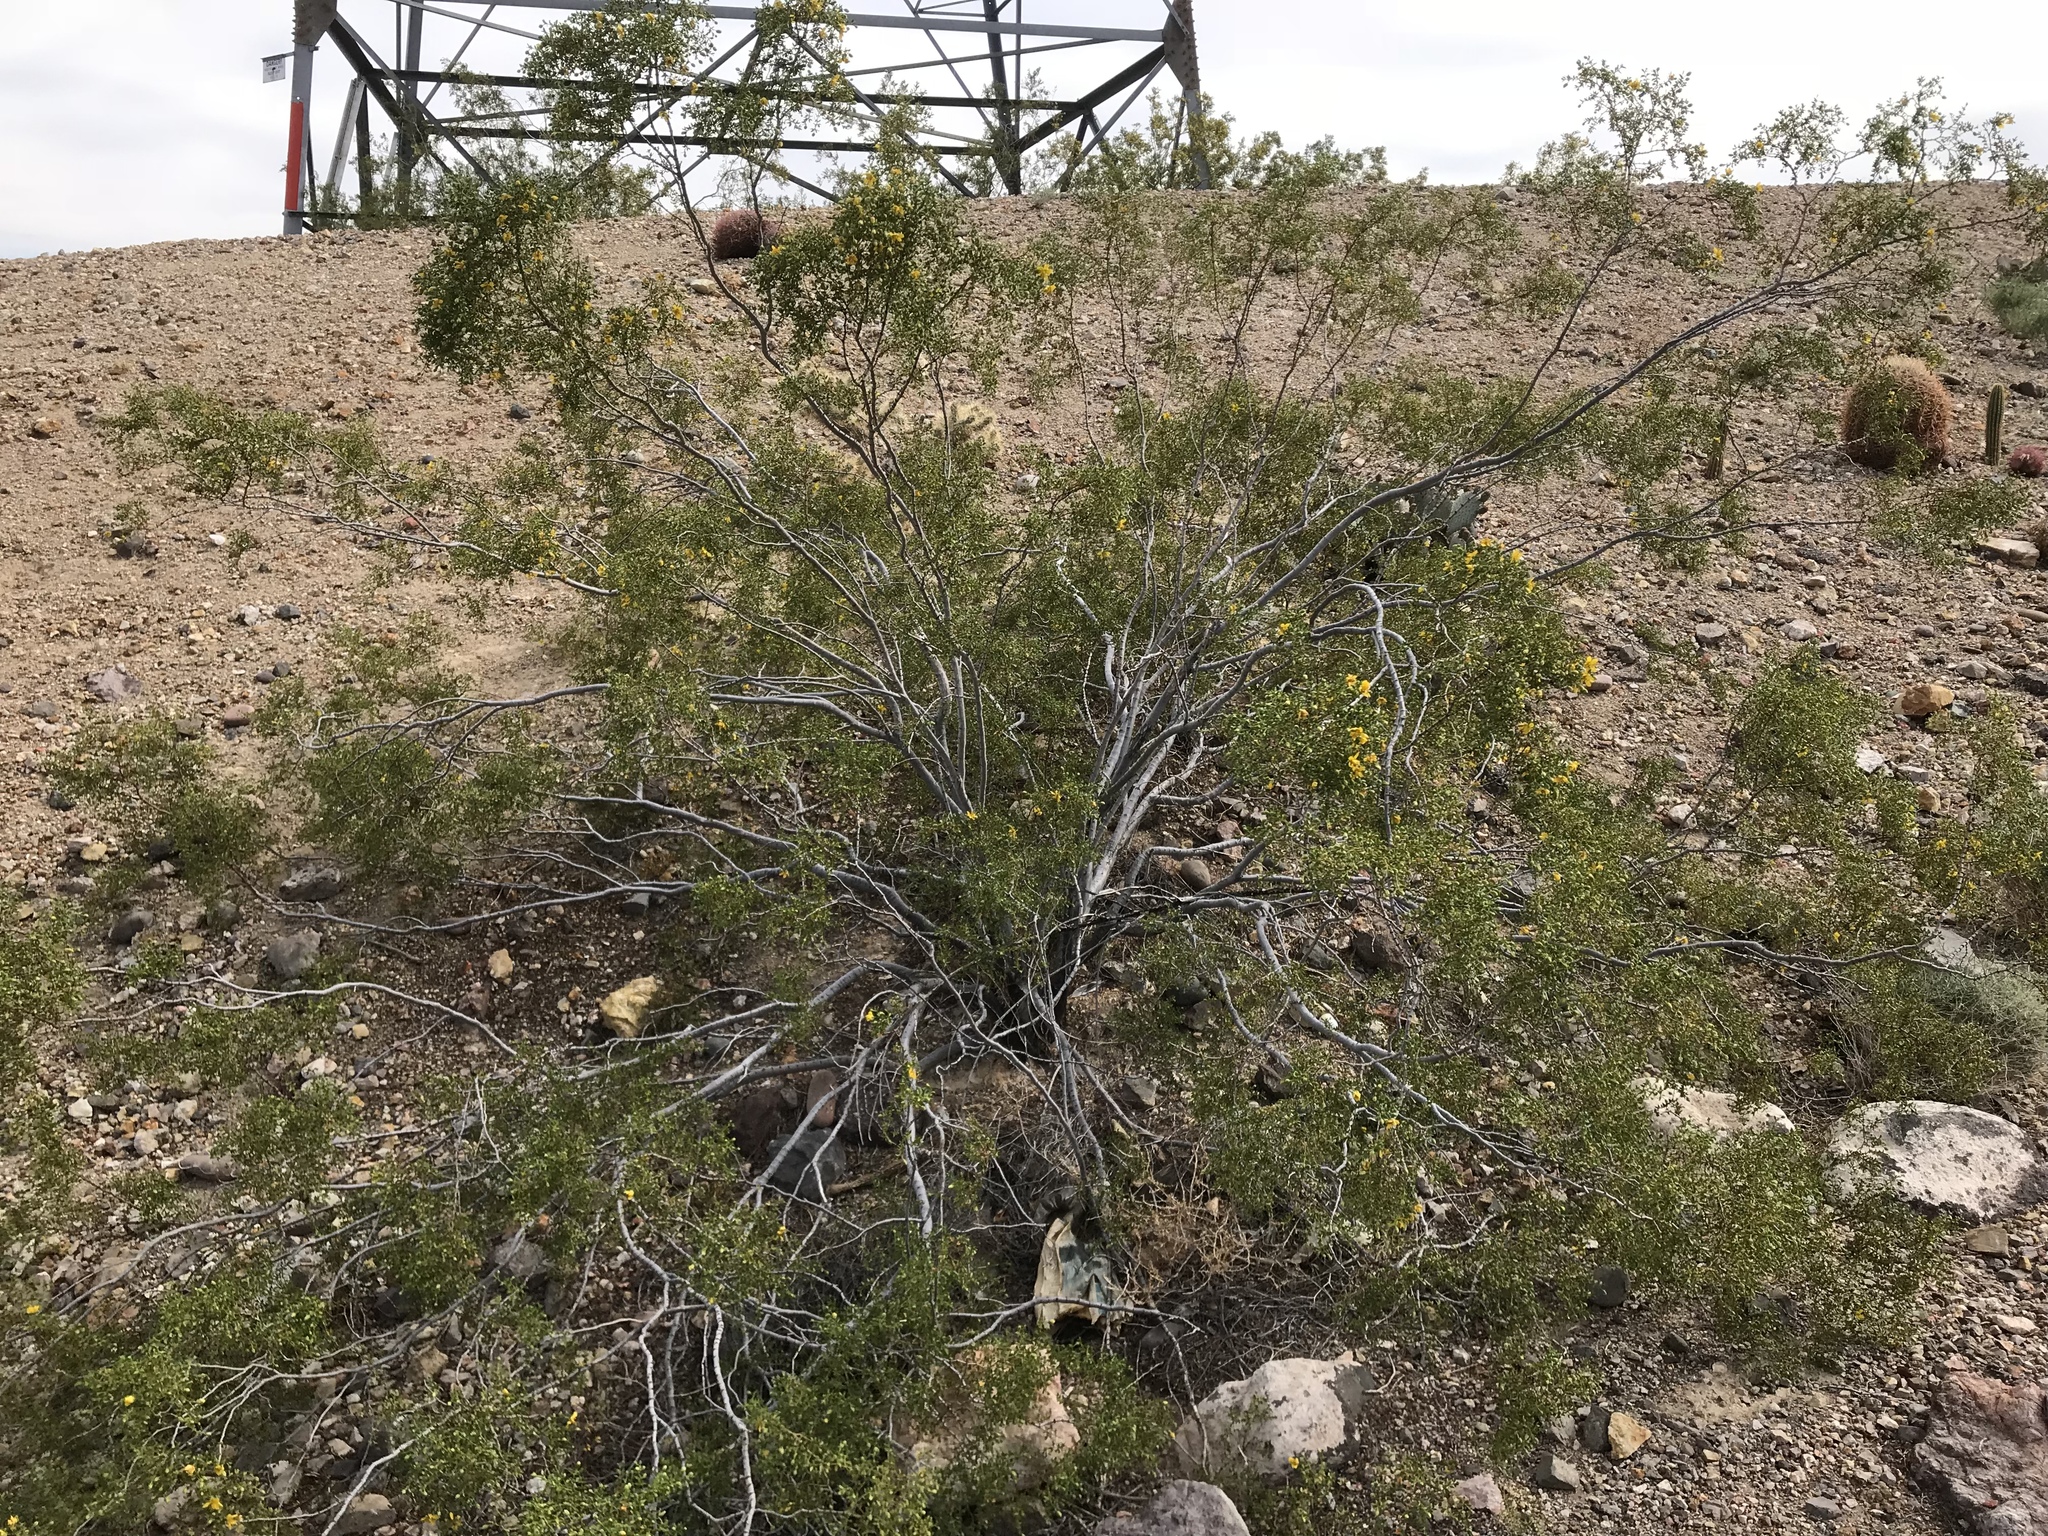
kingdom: Plantae
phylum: Tracheophyta
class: Magnoliopsida
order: Zygophyllales
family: Zygophyllaceae
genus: Larrea
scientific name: Larrea tridentata
